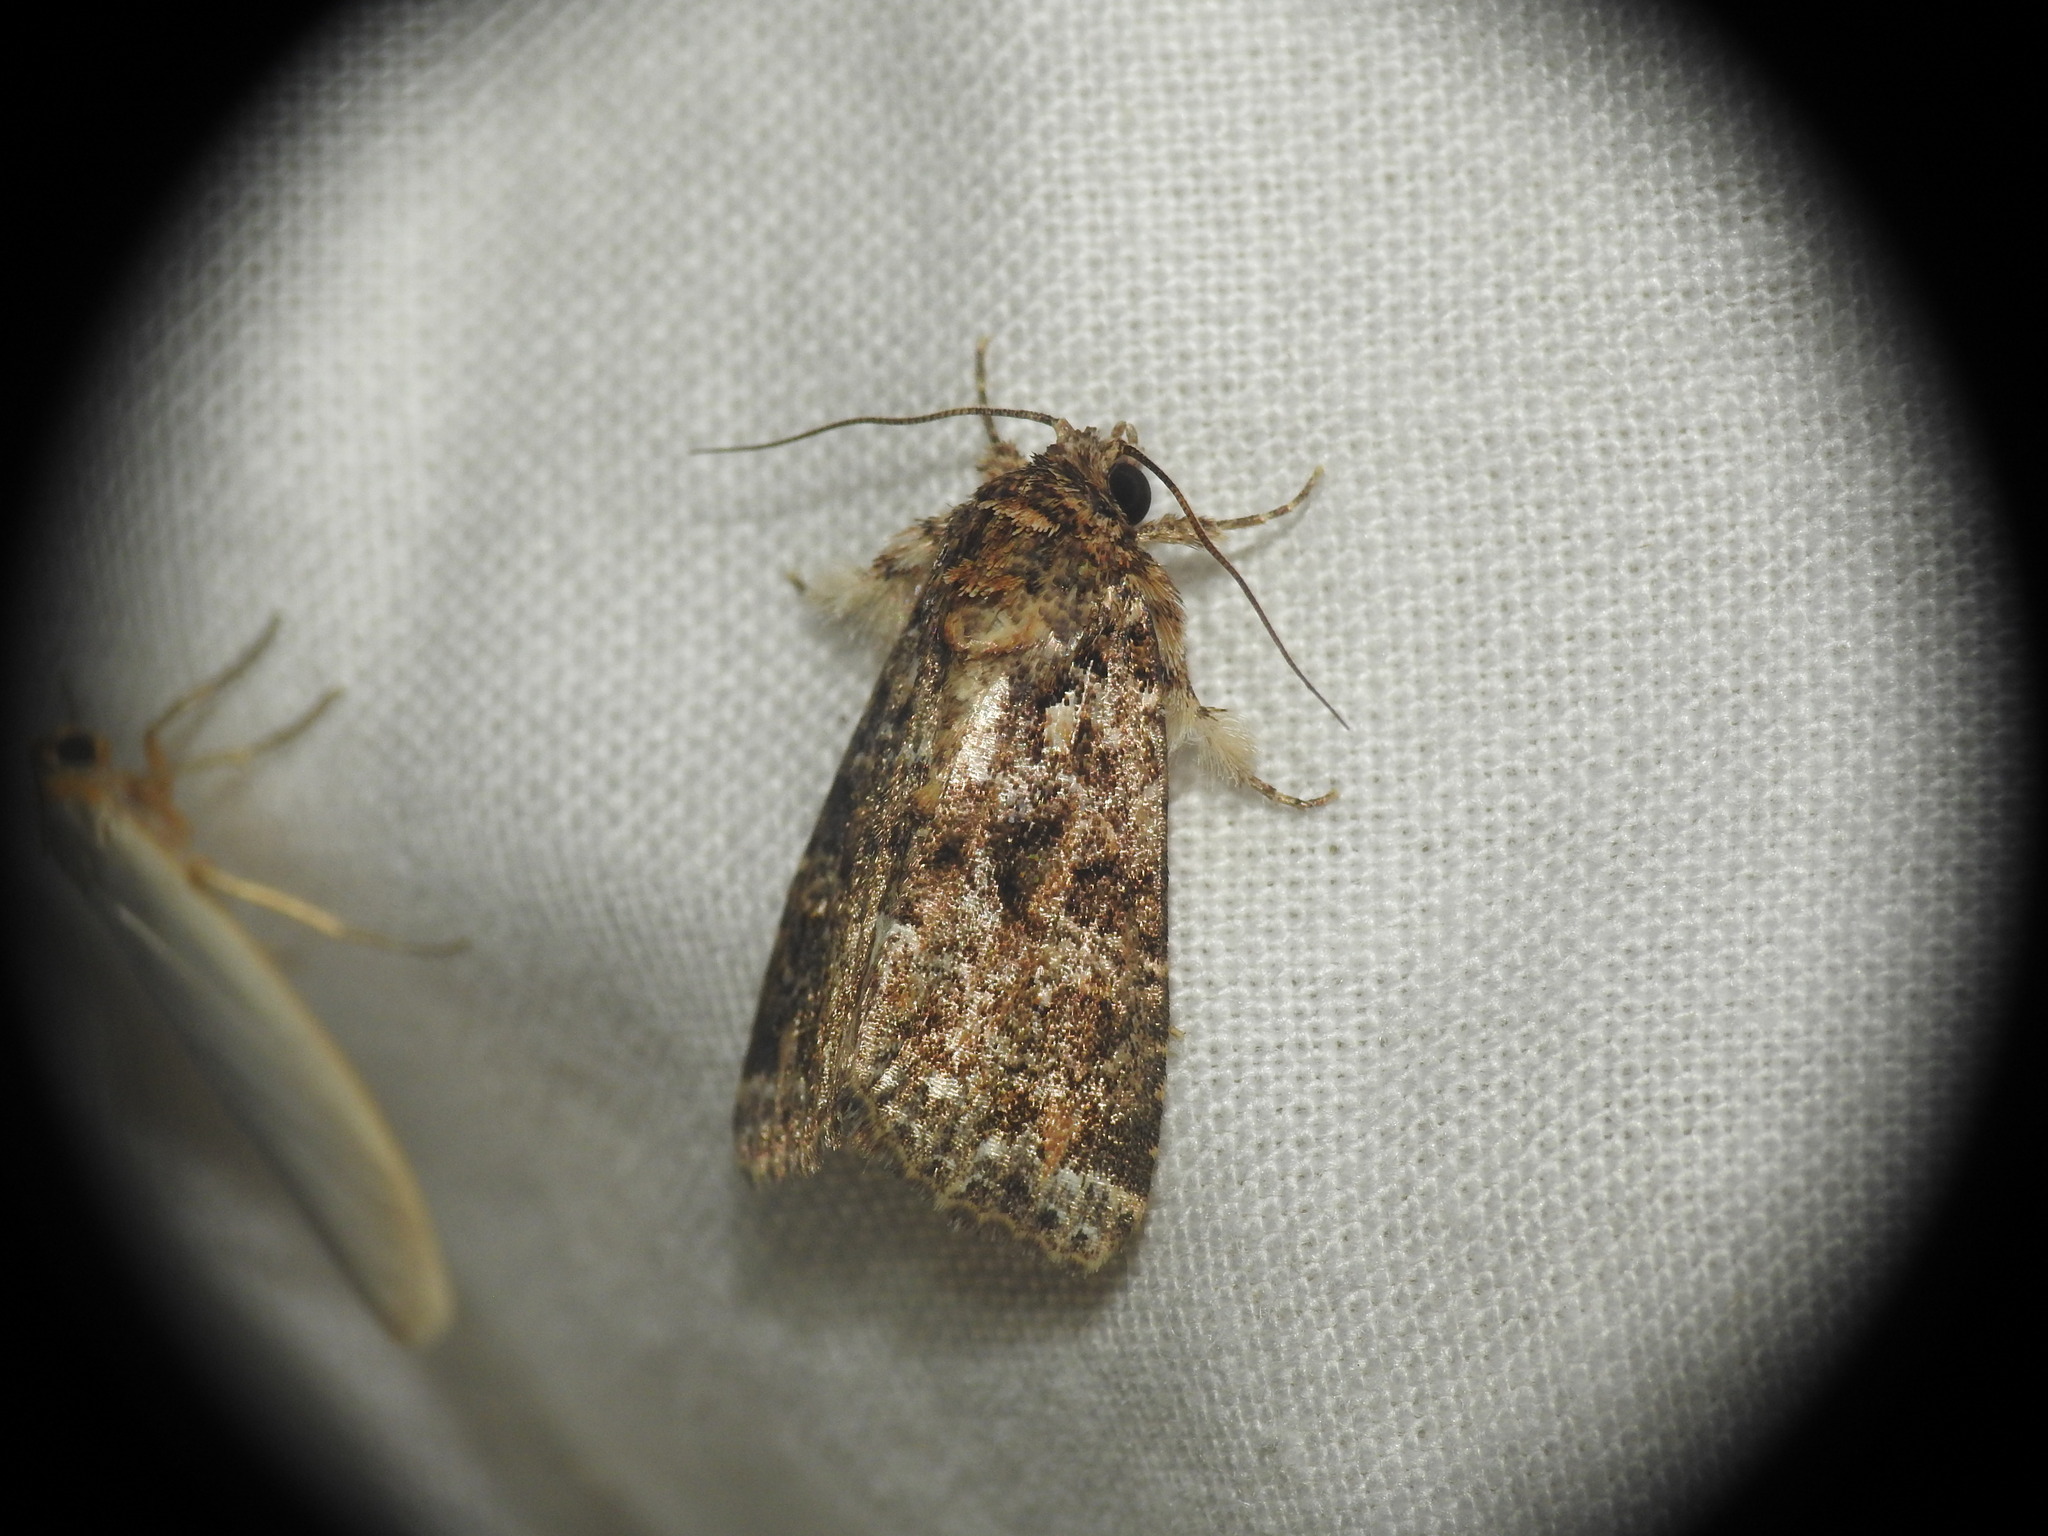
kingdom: Animalia
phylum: Arthropoda
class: Insecta
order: Lepidoptera
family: Noctuidae
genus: Callopistria
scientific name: Callopistria latreillei
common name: Latreille's latin
